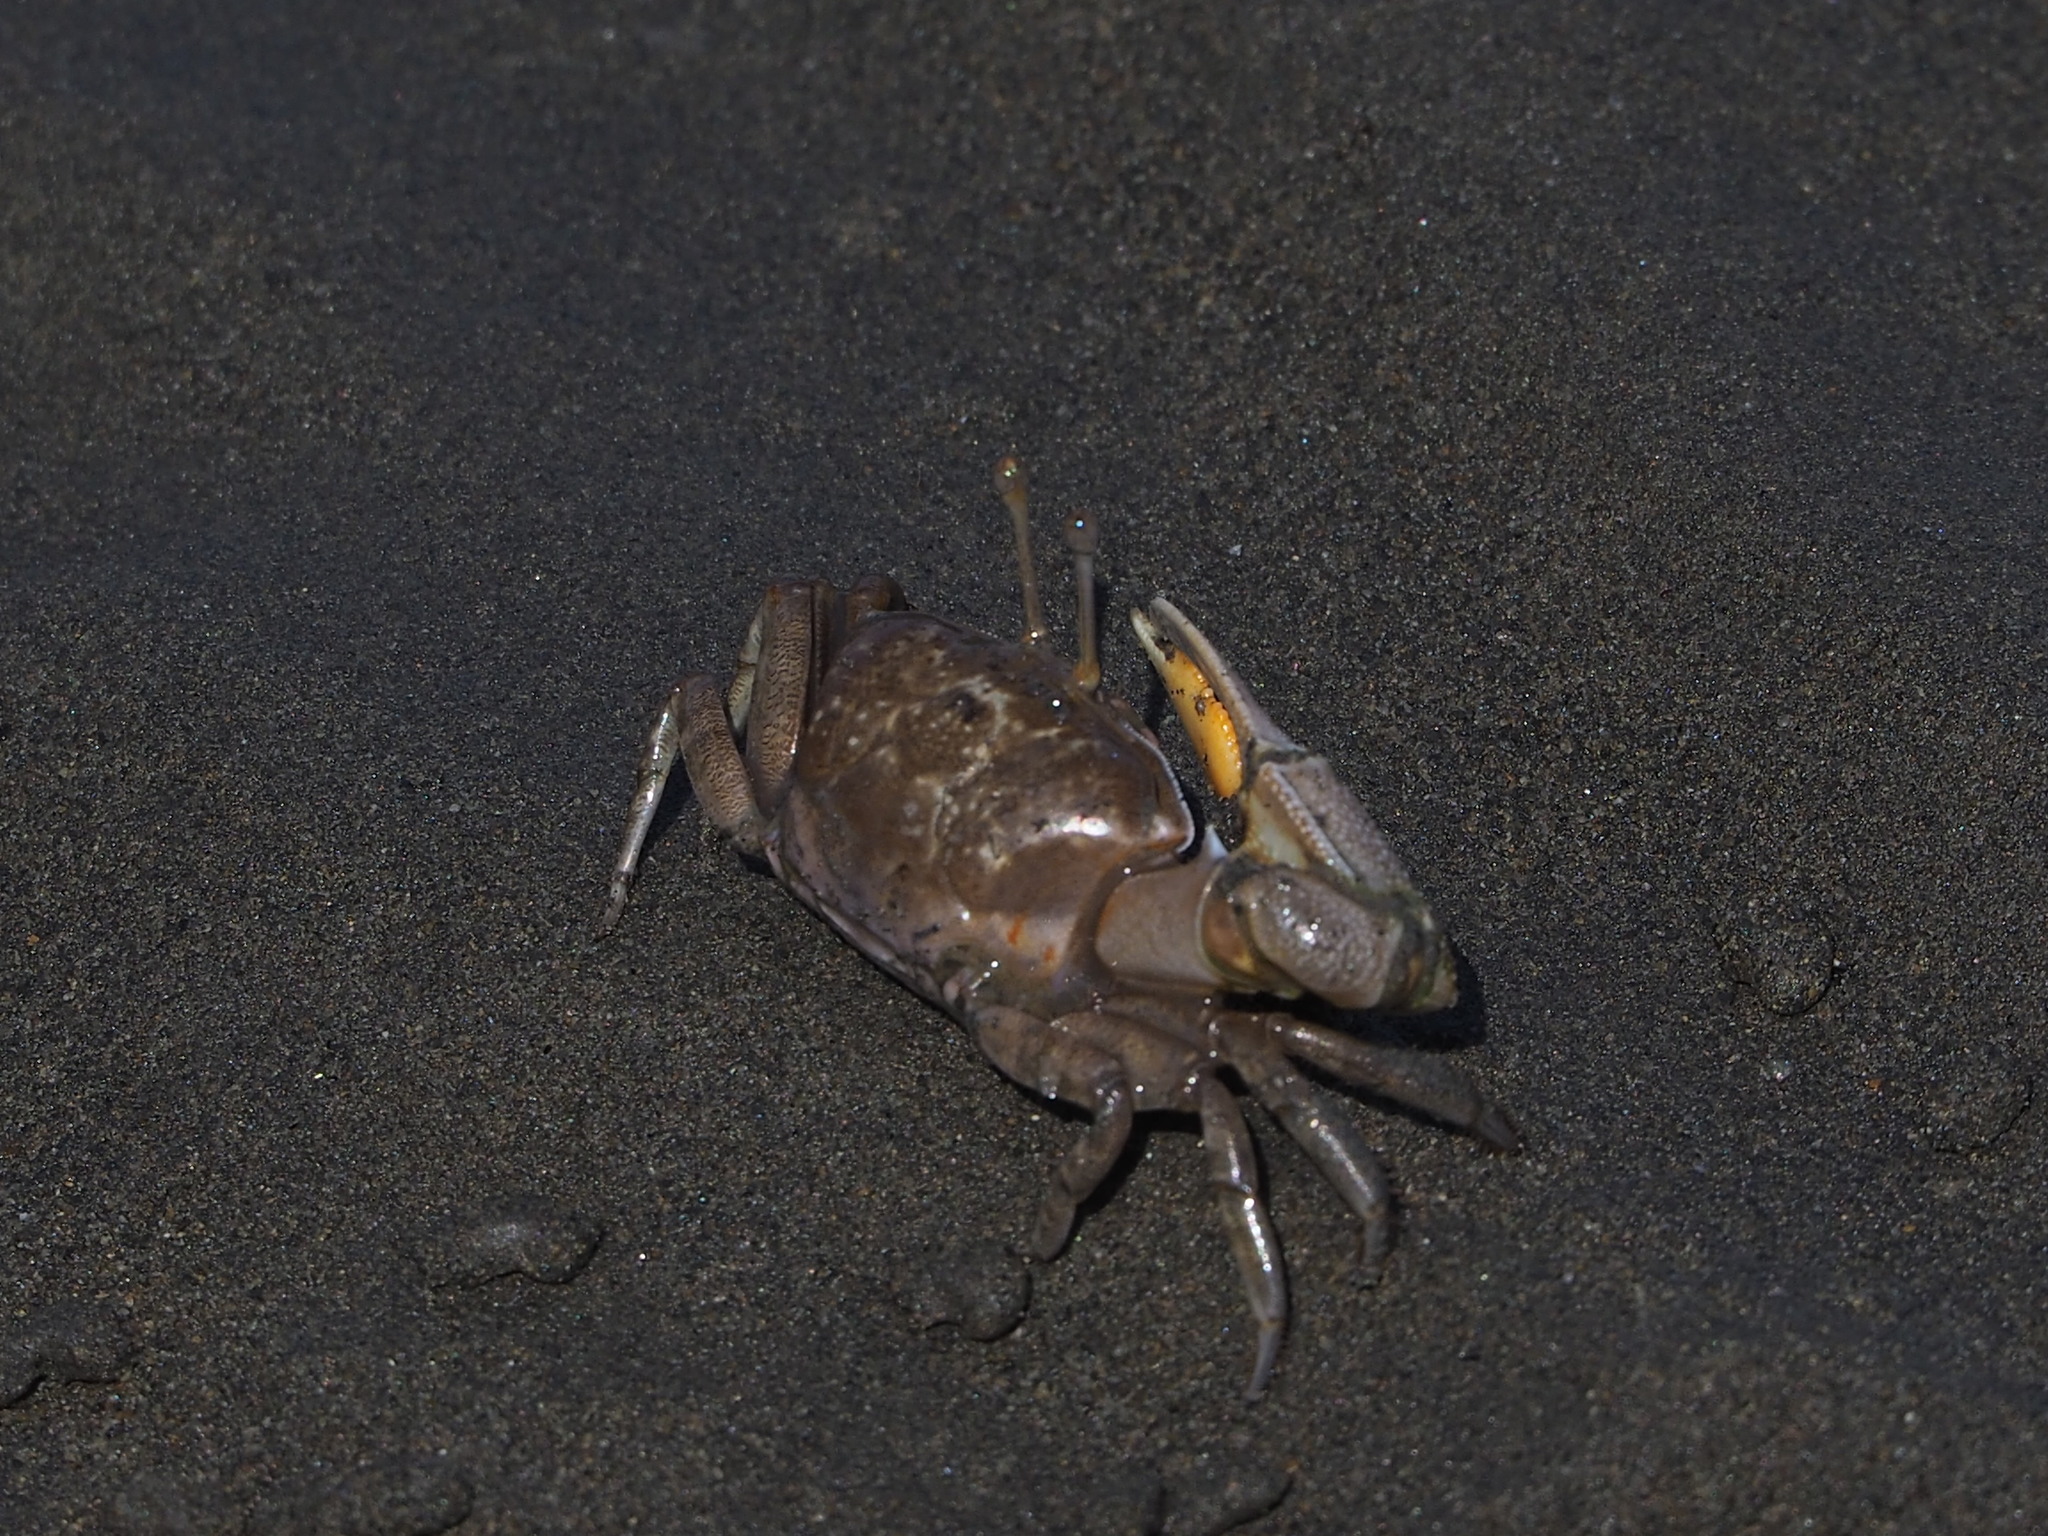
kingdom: Animalia
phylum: Arthropoda
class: Malacostraca
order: Decapoda
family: Ocypodidae
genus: Gelasimus
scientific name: Gelasimus borealis
